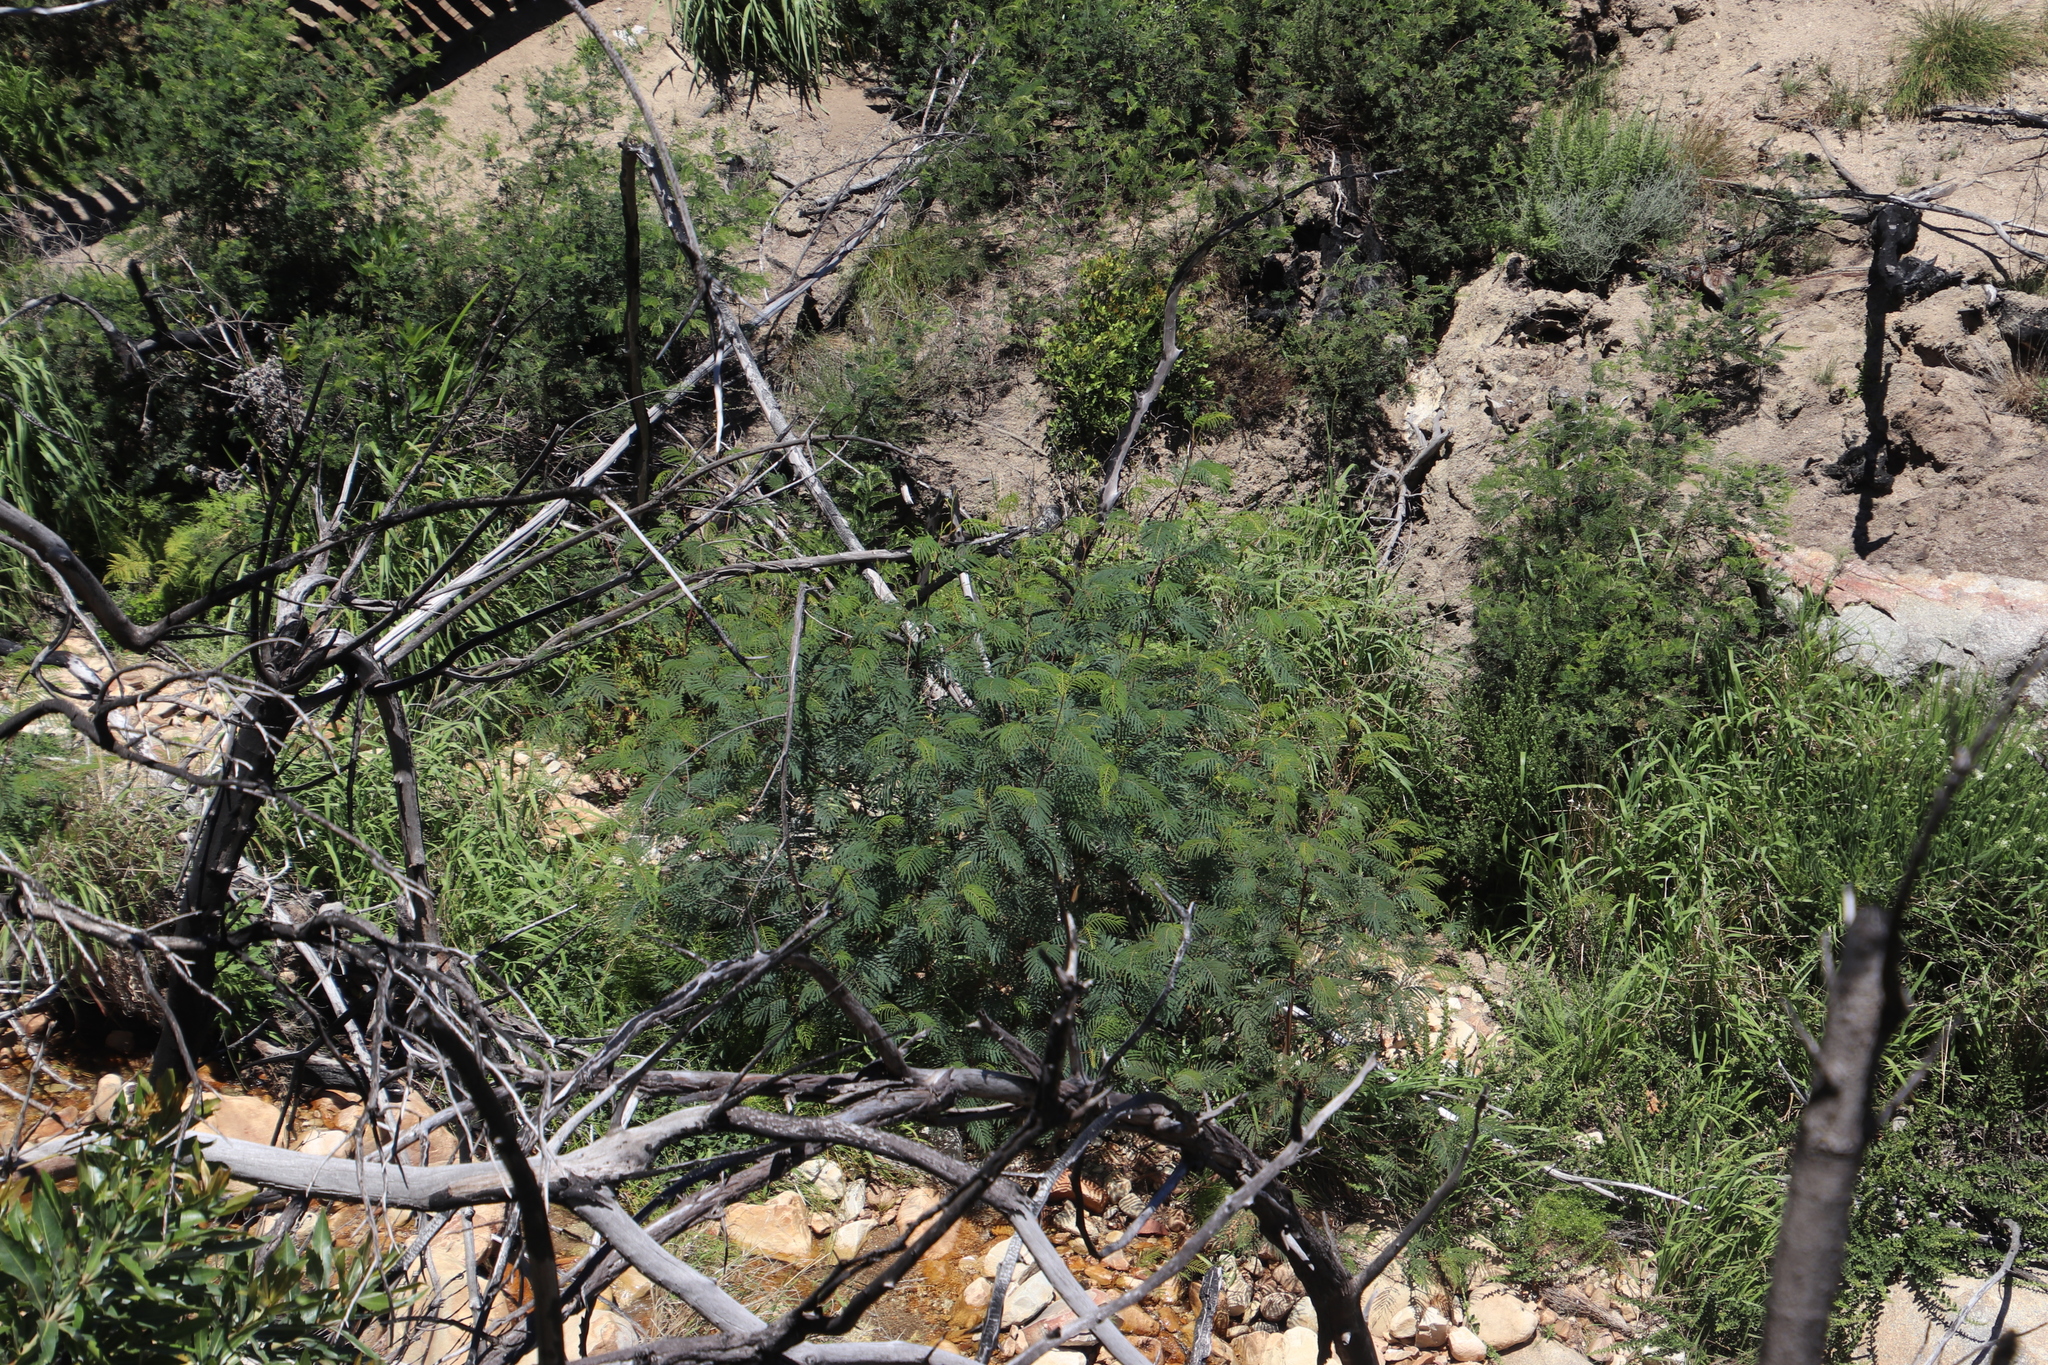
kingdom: Plantae
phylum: Tracheophyta
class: Magnoliopsida
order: Fabales
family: Fabaceae
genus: Paraserianthes
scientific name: Paraserianthes lophantha
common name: Plume albizia
